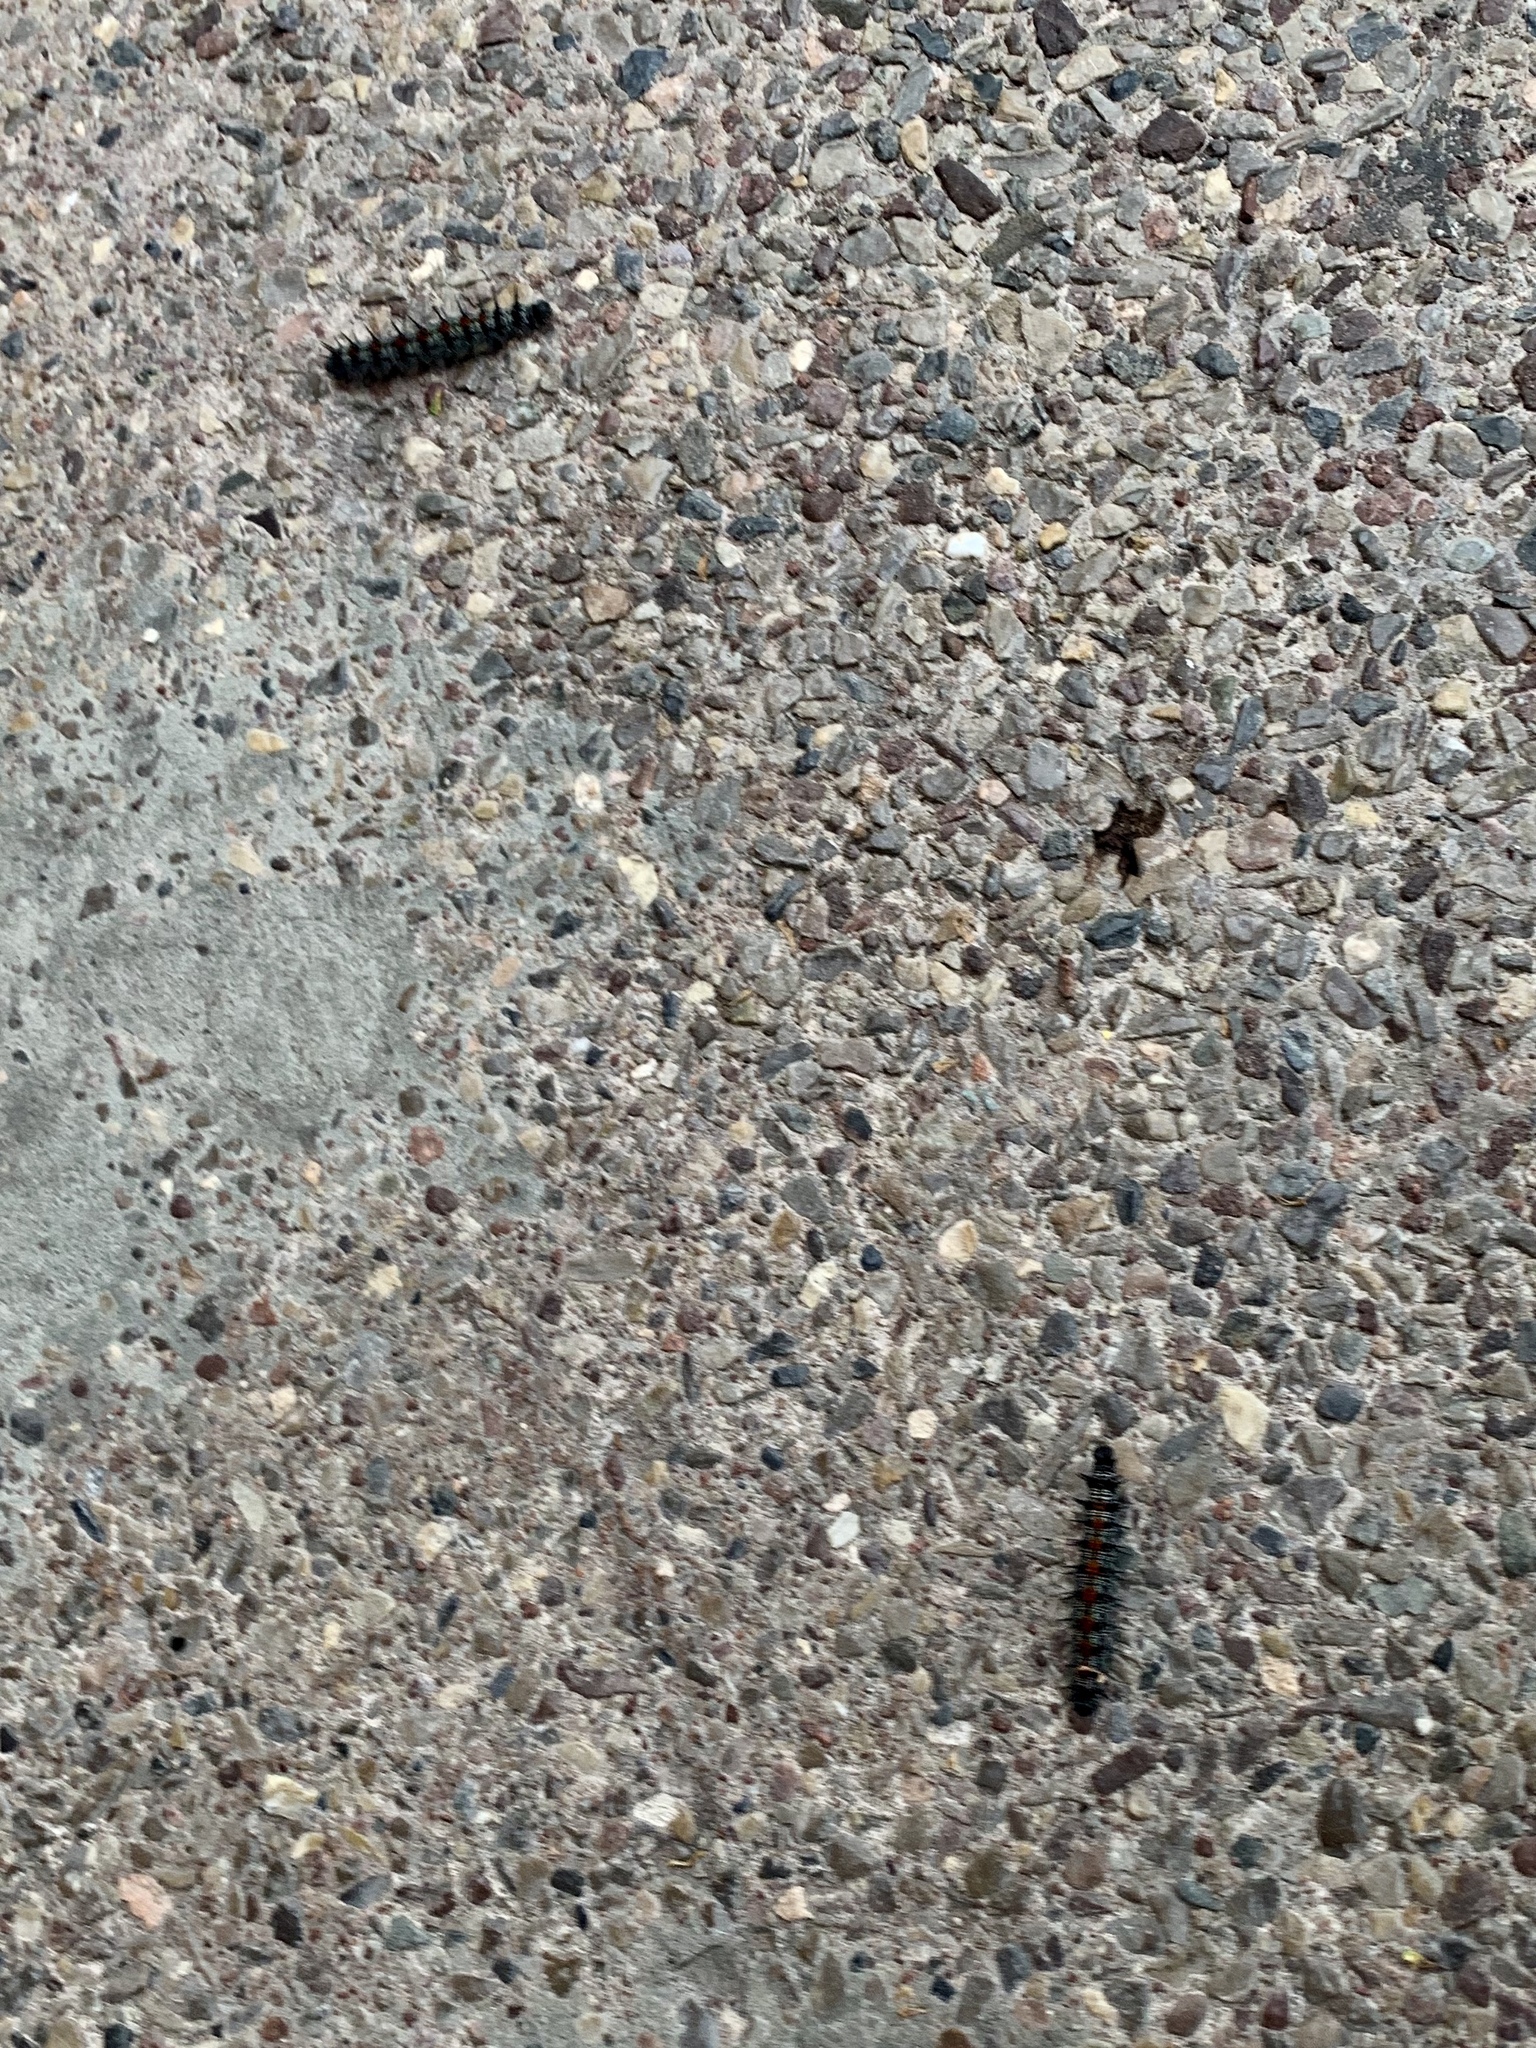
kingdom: Animalia
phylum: Arthropoda
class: Insecta
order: Lepidoptera
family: Nymphalidae
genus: Nymphalis
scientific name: Nymphalis antiopa
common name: Camberwell beauty
